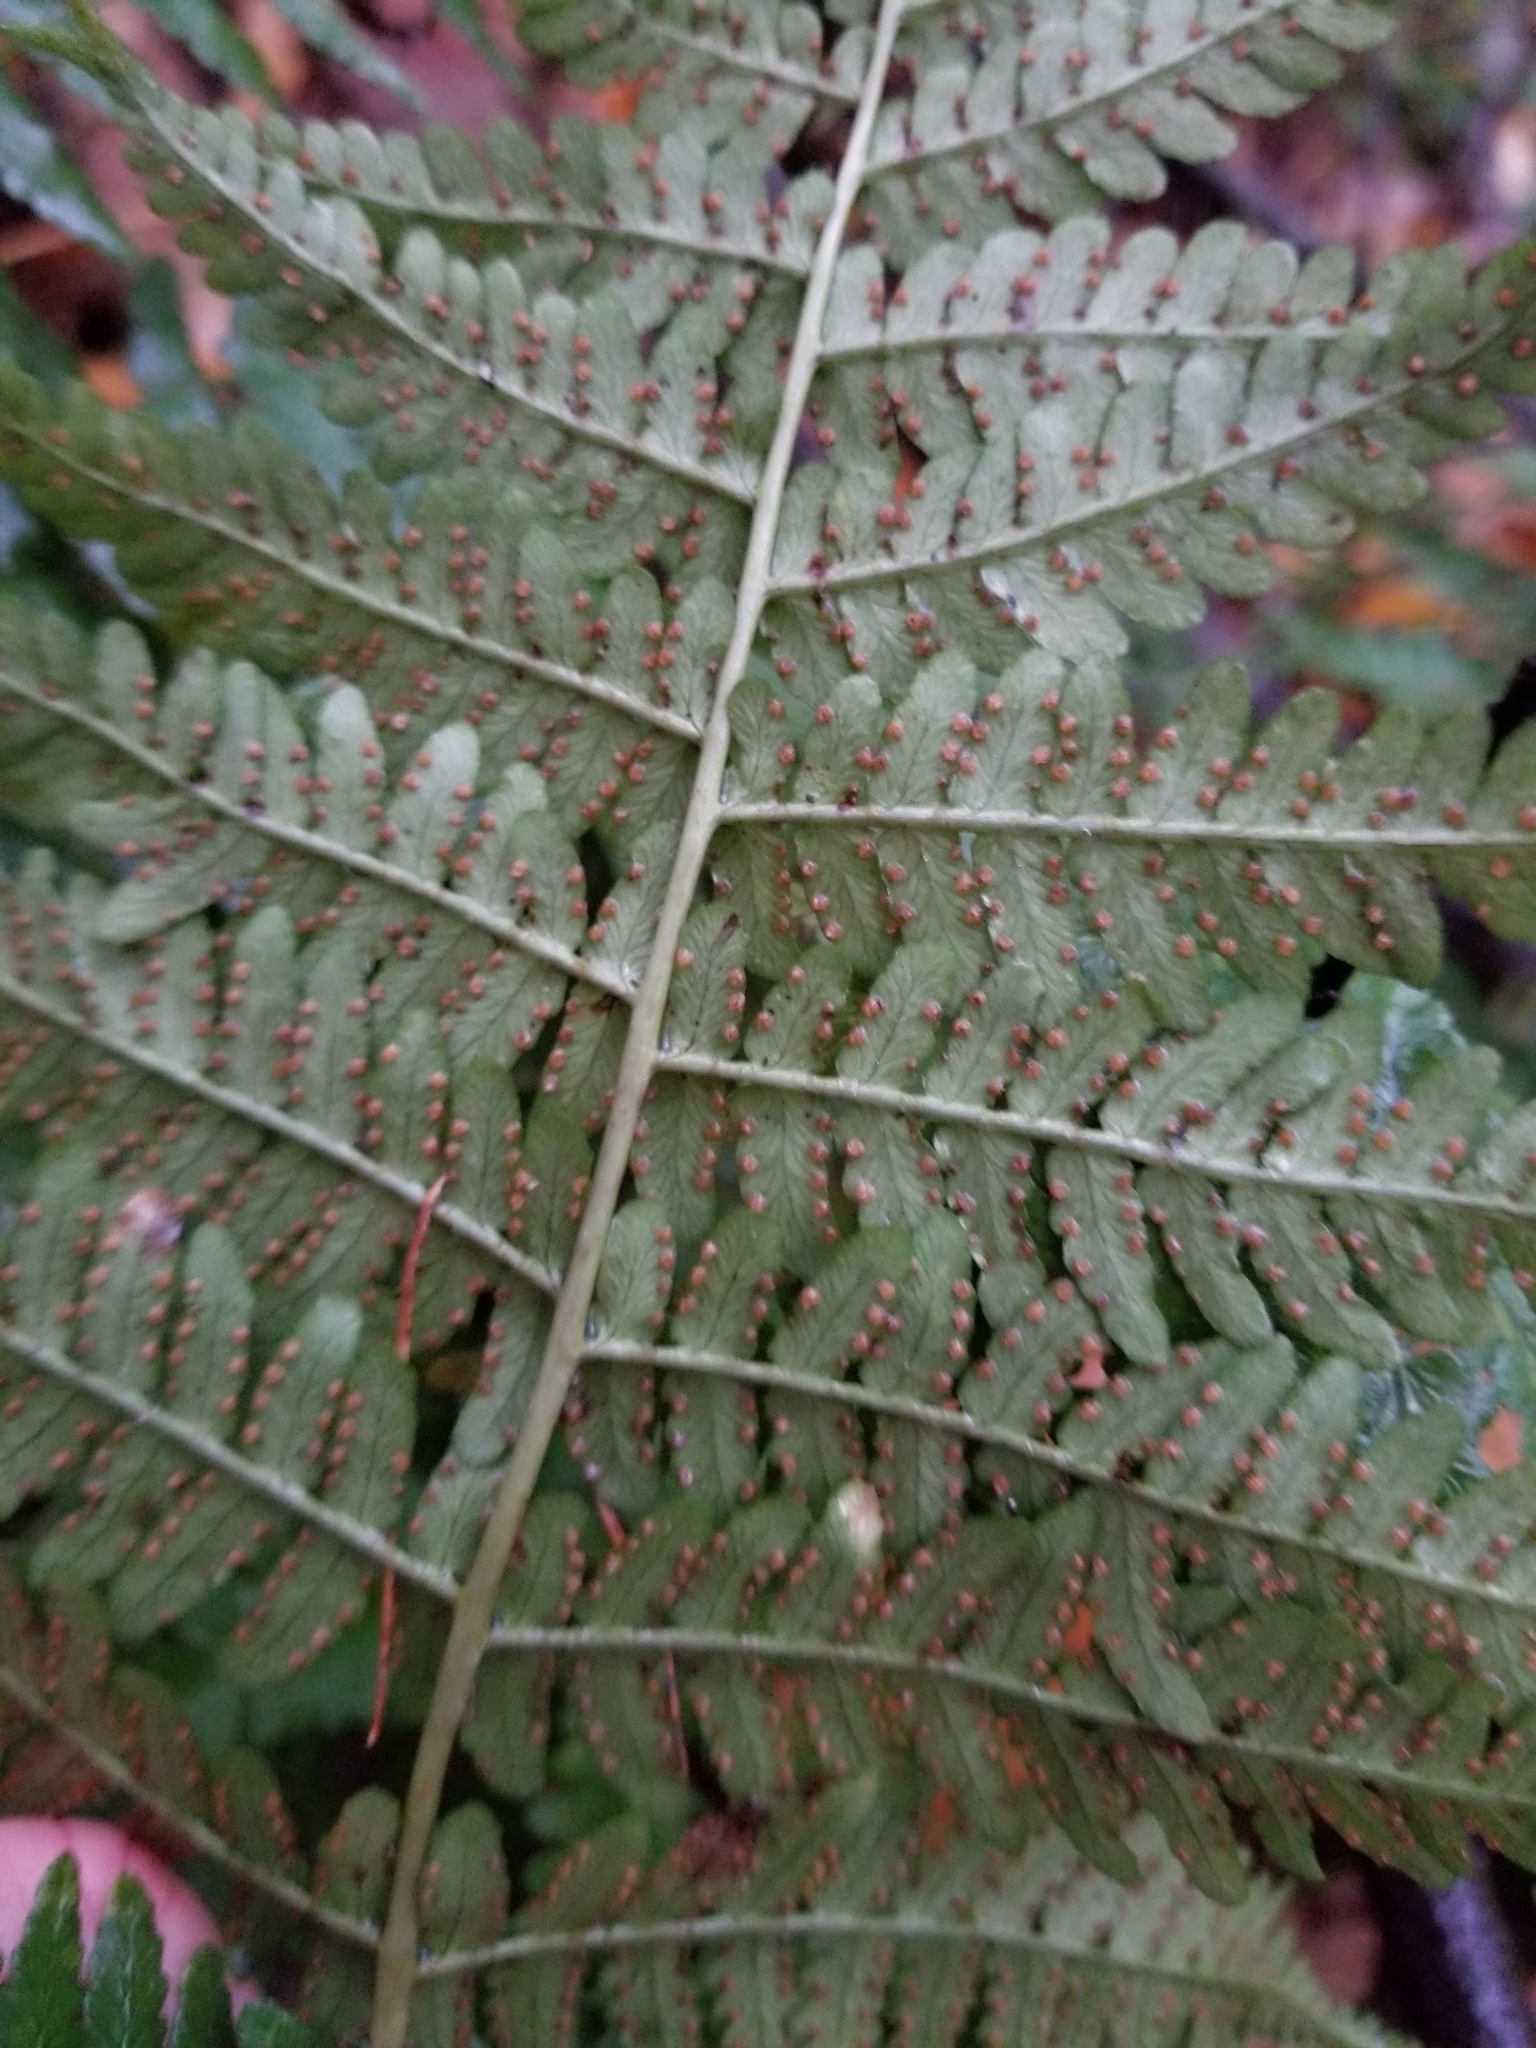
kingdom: Plantae
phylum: Tracheophyta
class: Polypodiopsida
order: Polypodiales
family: Dryopteridaceae
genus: Dryopteris
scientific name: Dryopteris marginalis
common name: Marginal wood fern
